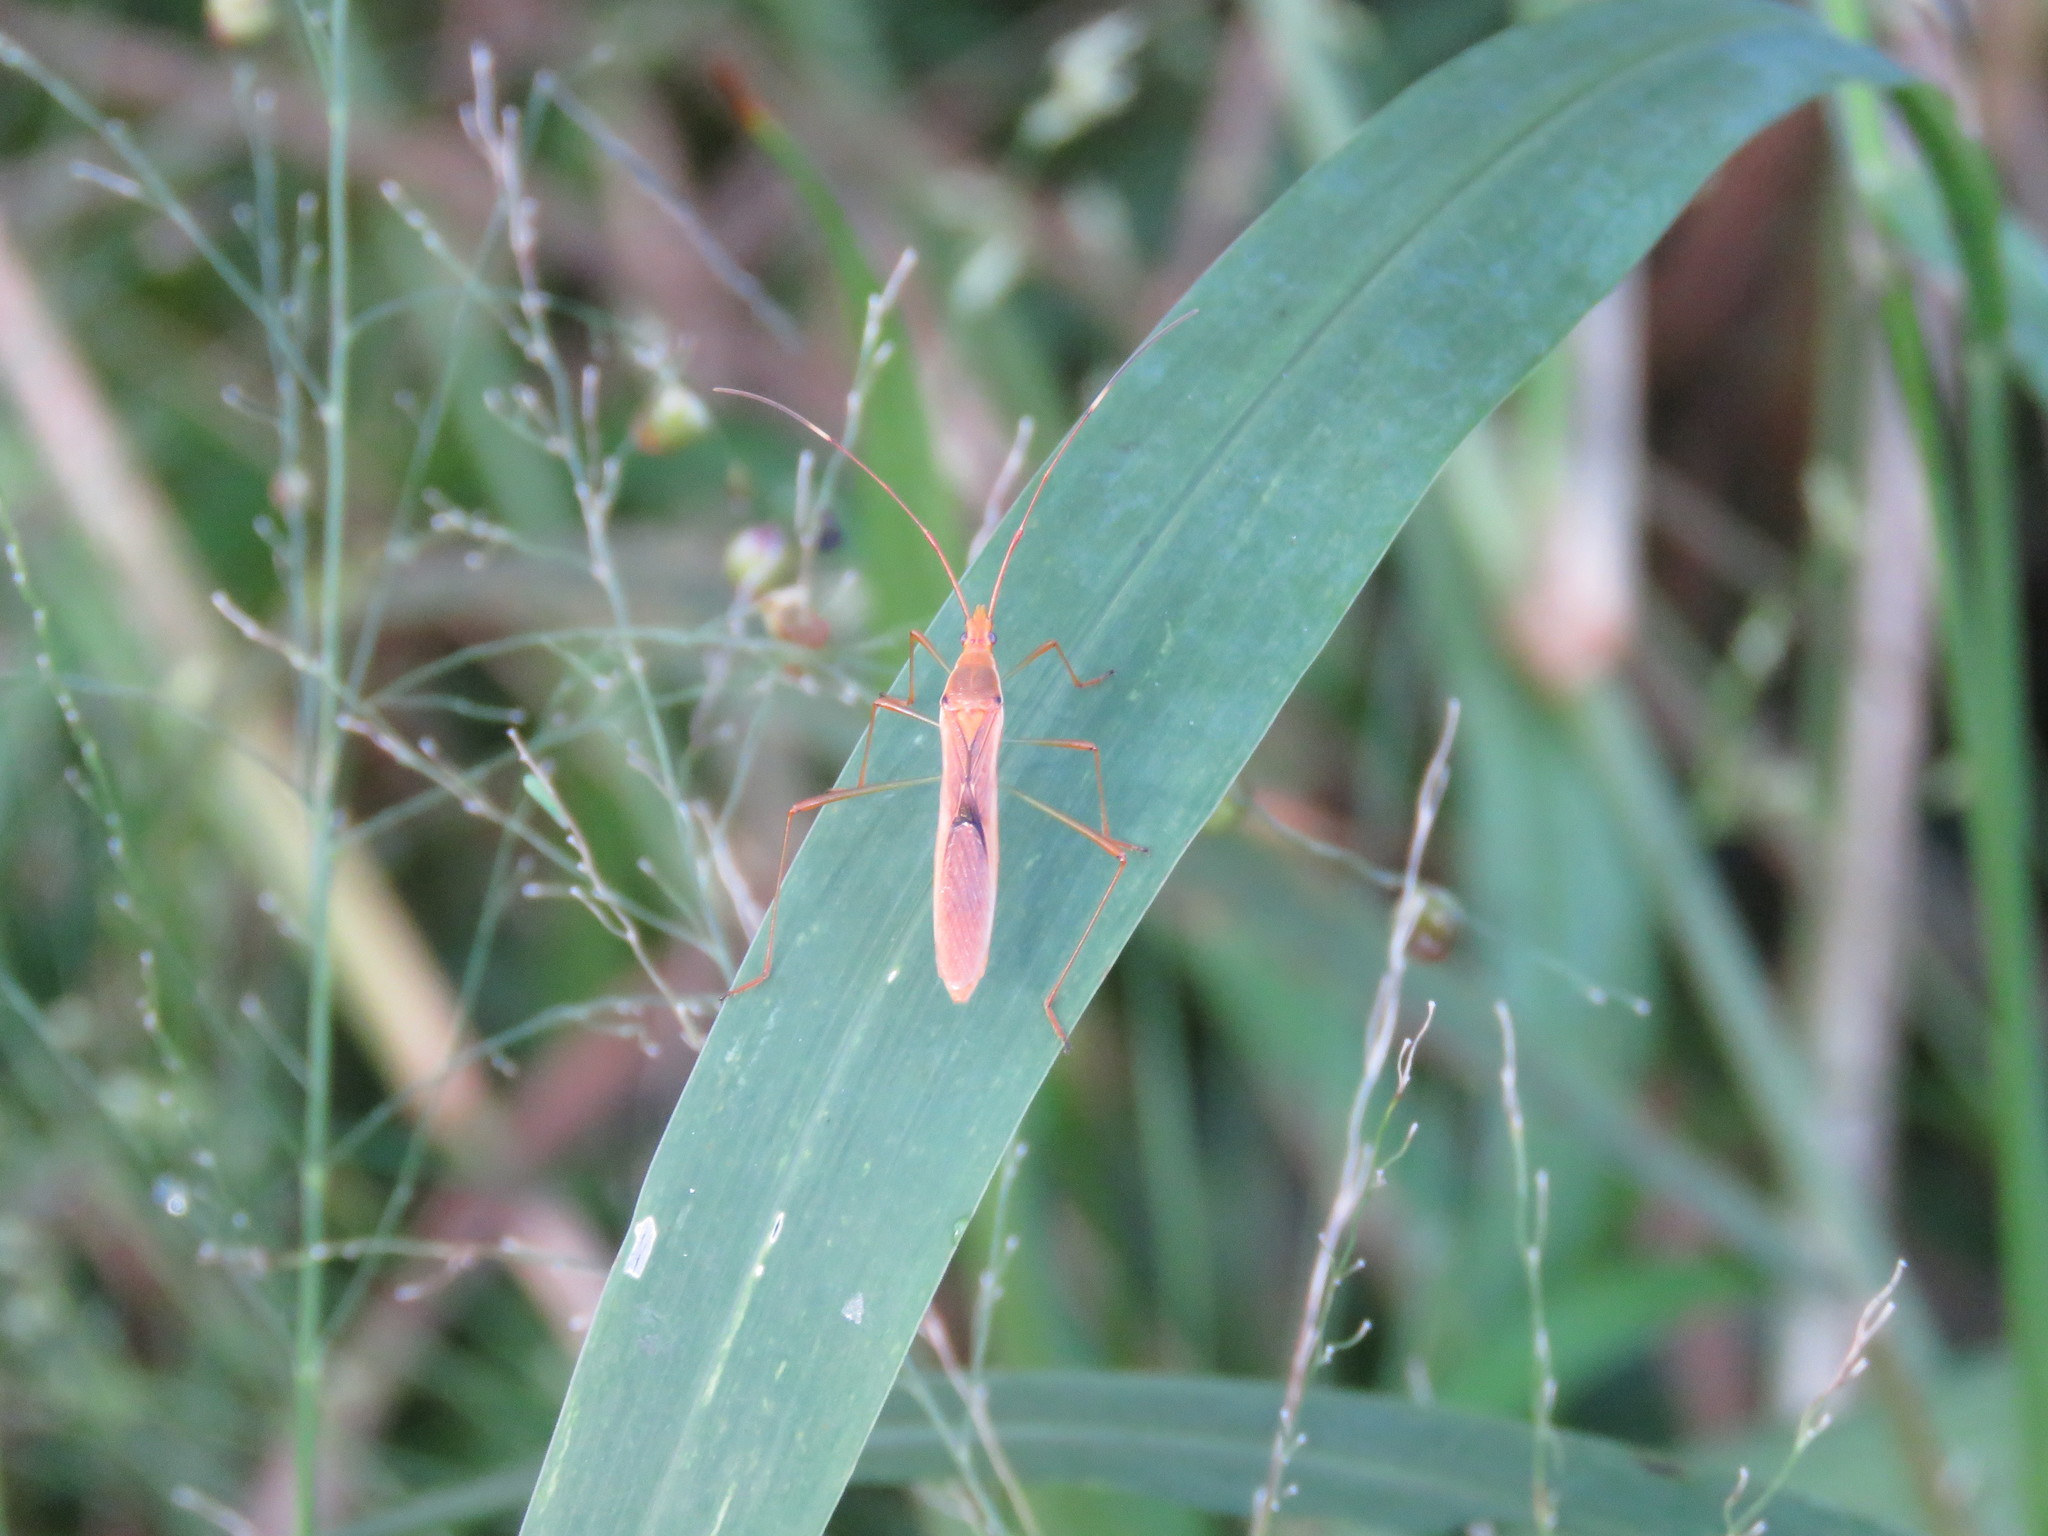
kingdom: Animalia
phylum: Arthropoda
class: Insecta
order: Hemiptera
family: Alydidae
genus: Leptocorisa
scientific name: Leptocorisa acuta
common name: Gandhi bug
